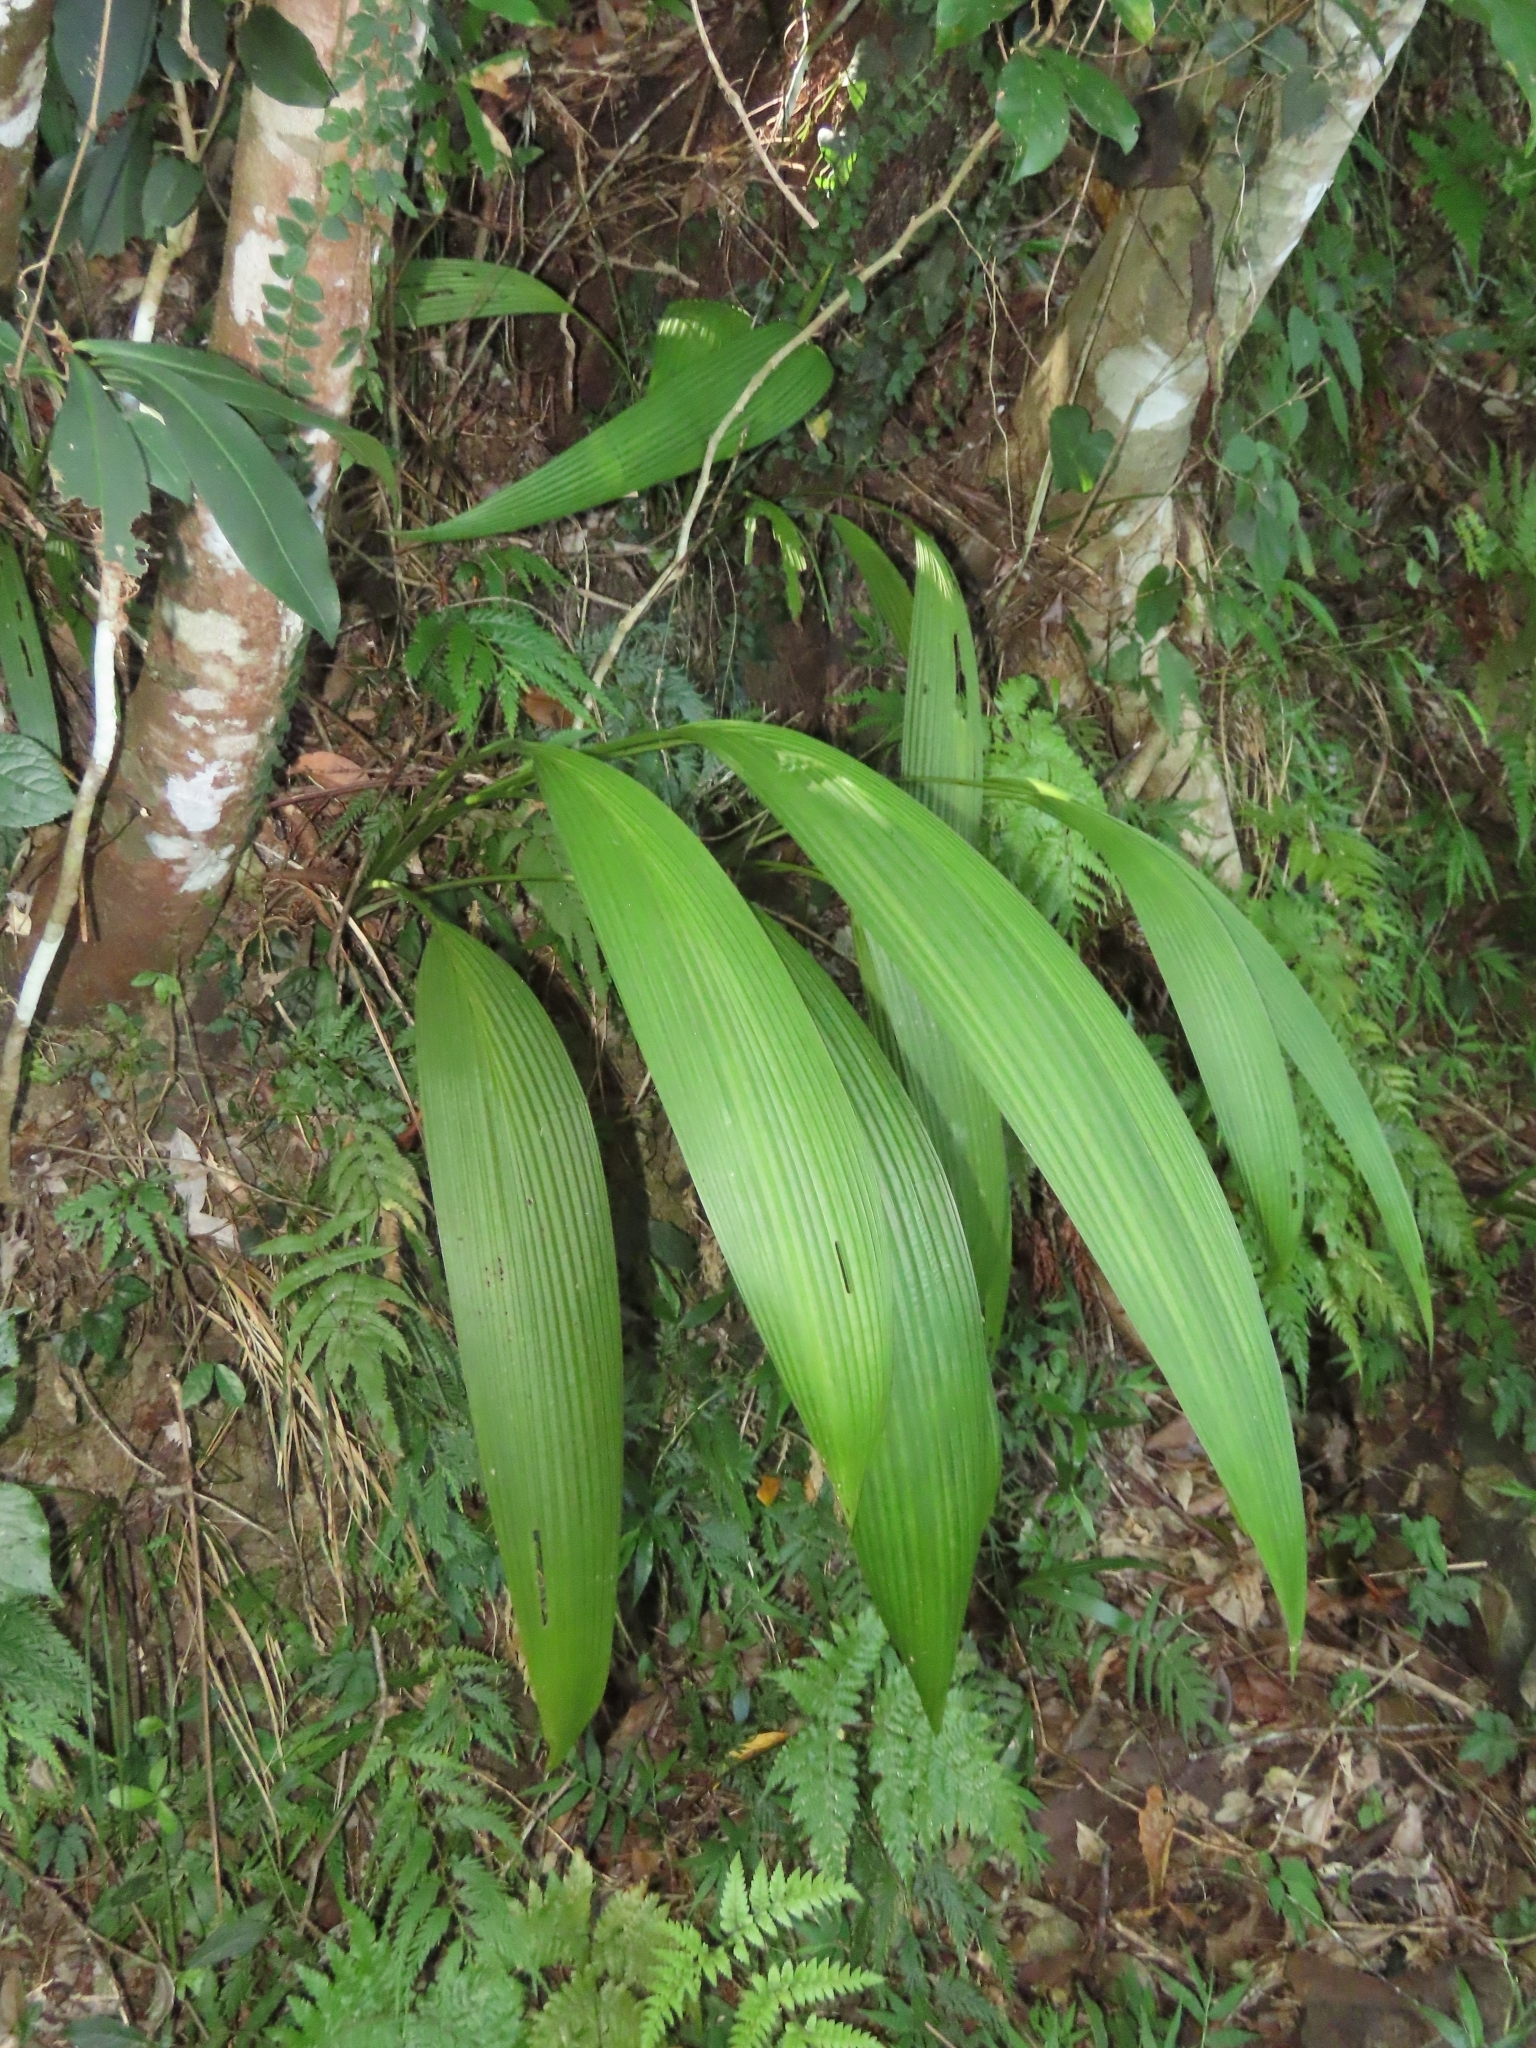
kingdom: Plantae
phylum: Tracheophyta
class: Liliopsida
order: Asparagales
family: Hypoxidaceae
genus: Curculigo
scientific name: Curculigo capitulata
